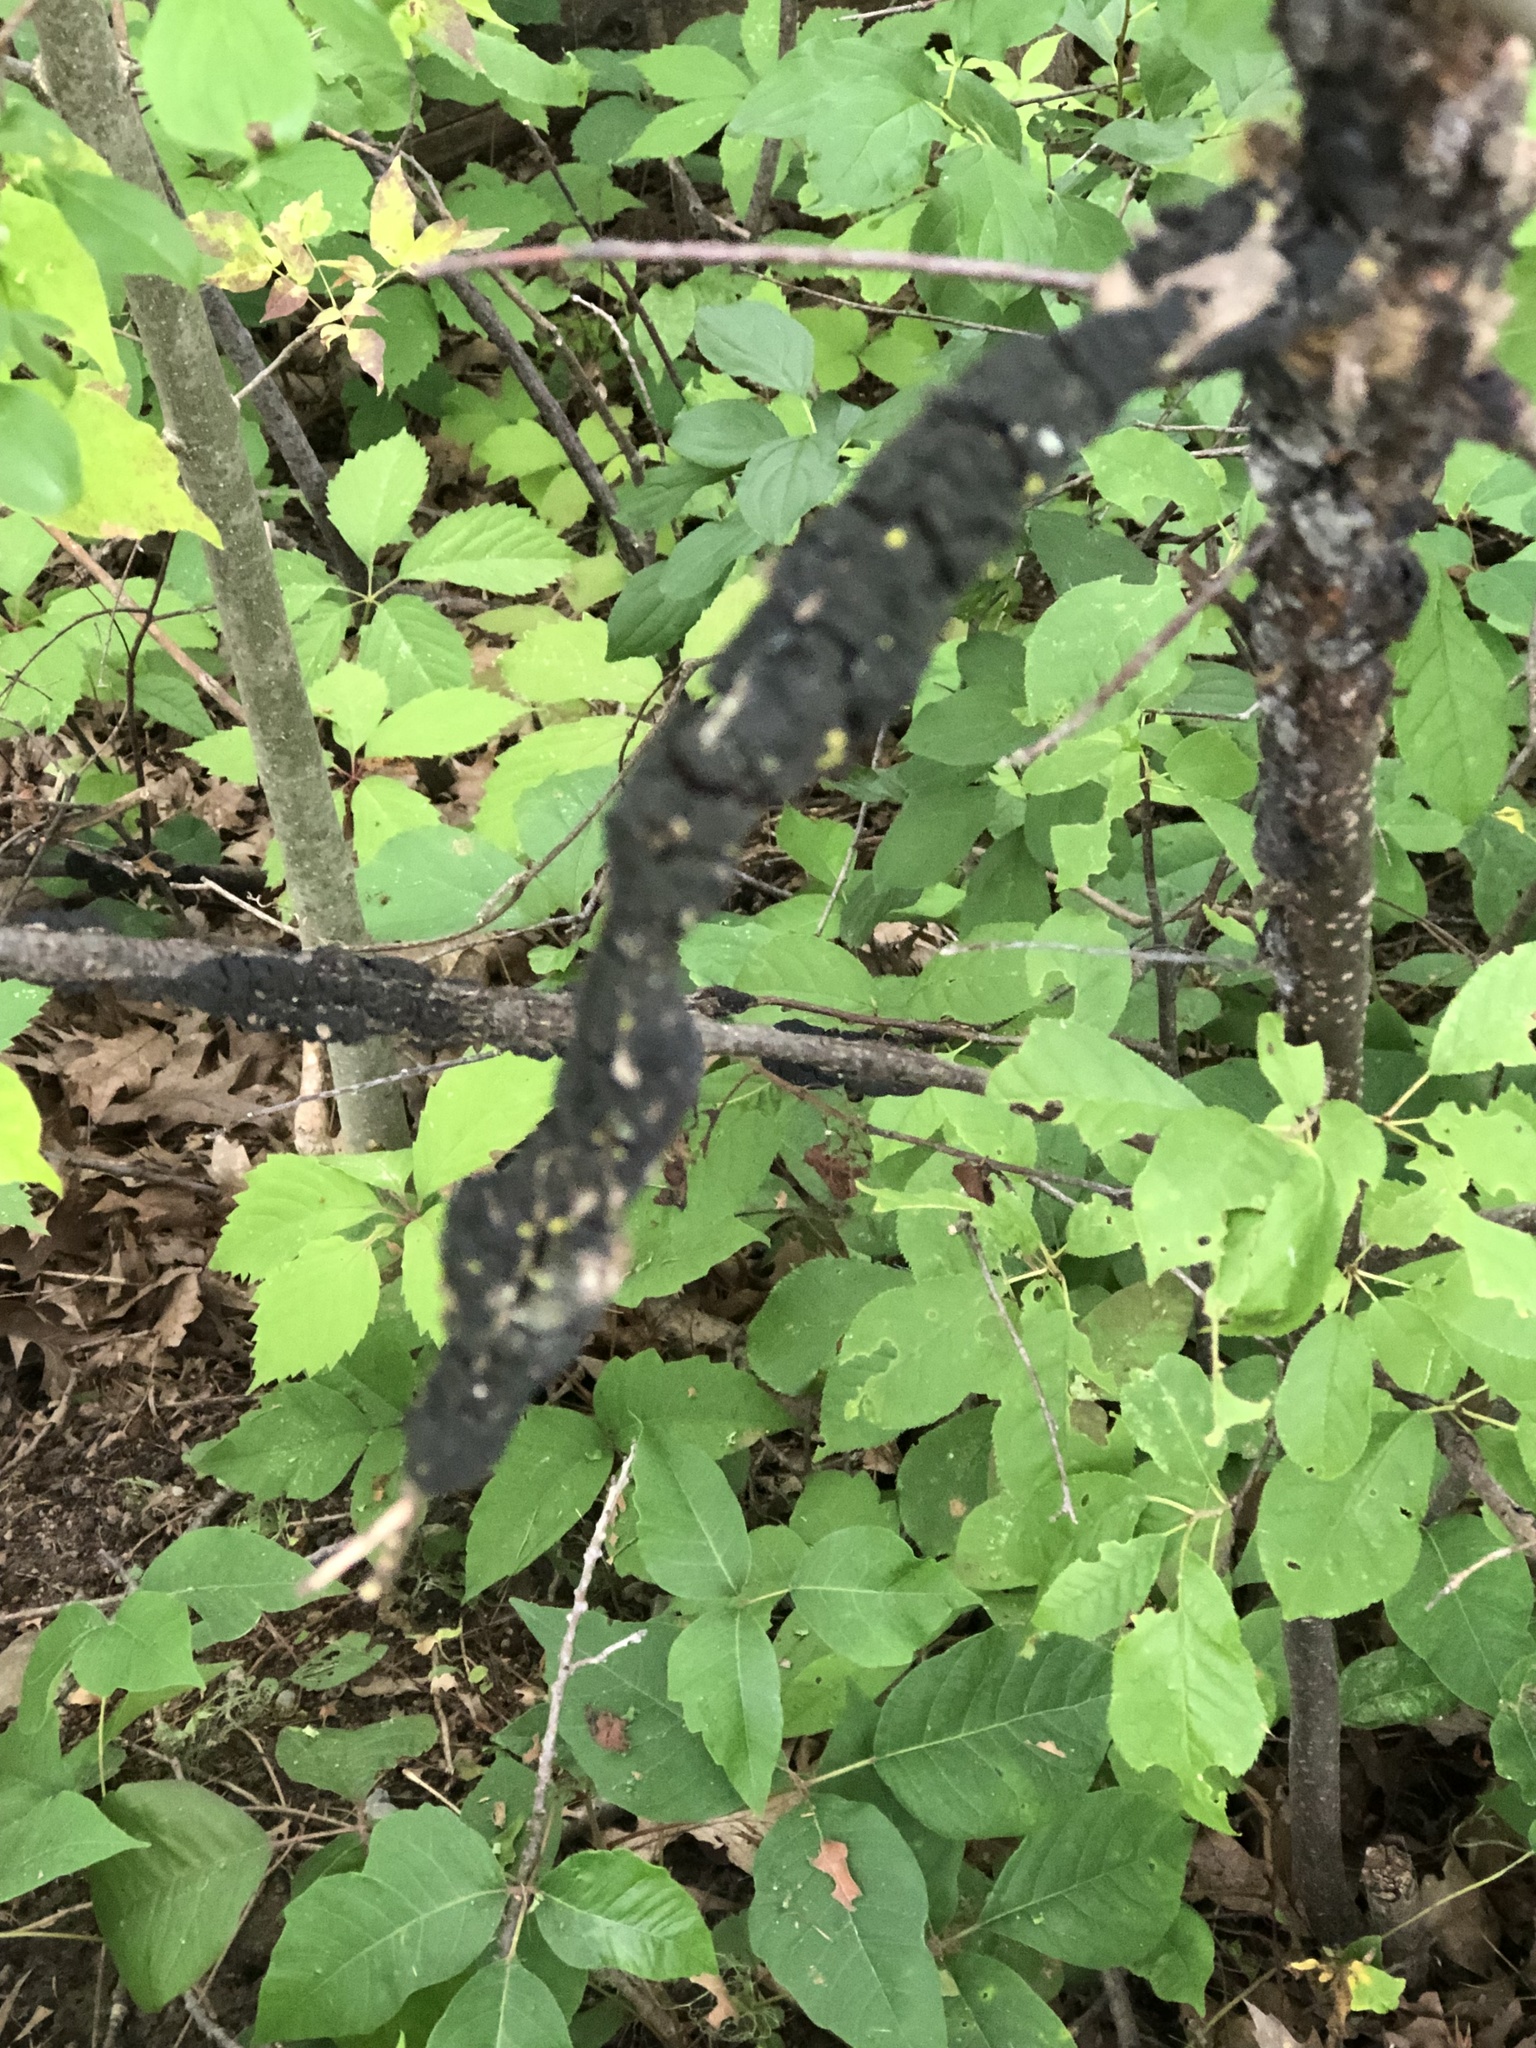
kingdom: Fungi
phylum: Ascomycota
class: Dothideomycetes
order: Venturiales
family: Venturiaceae
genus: Apiosporina
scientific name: Apiosporina morbosa
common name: Black knot
